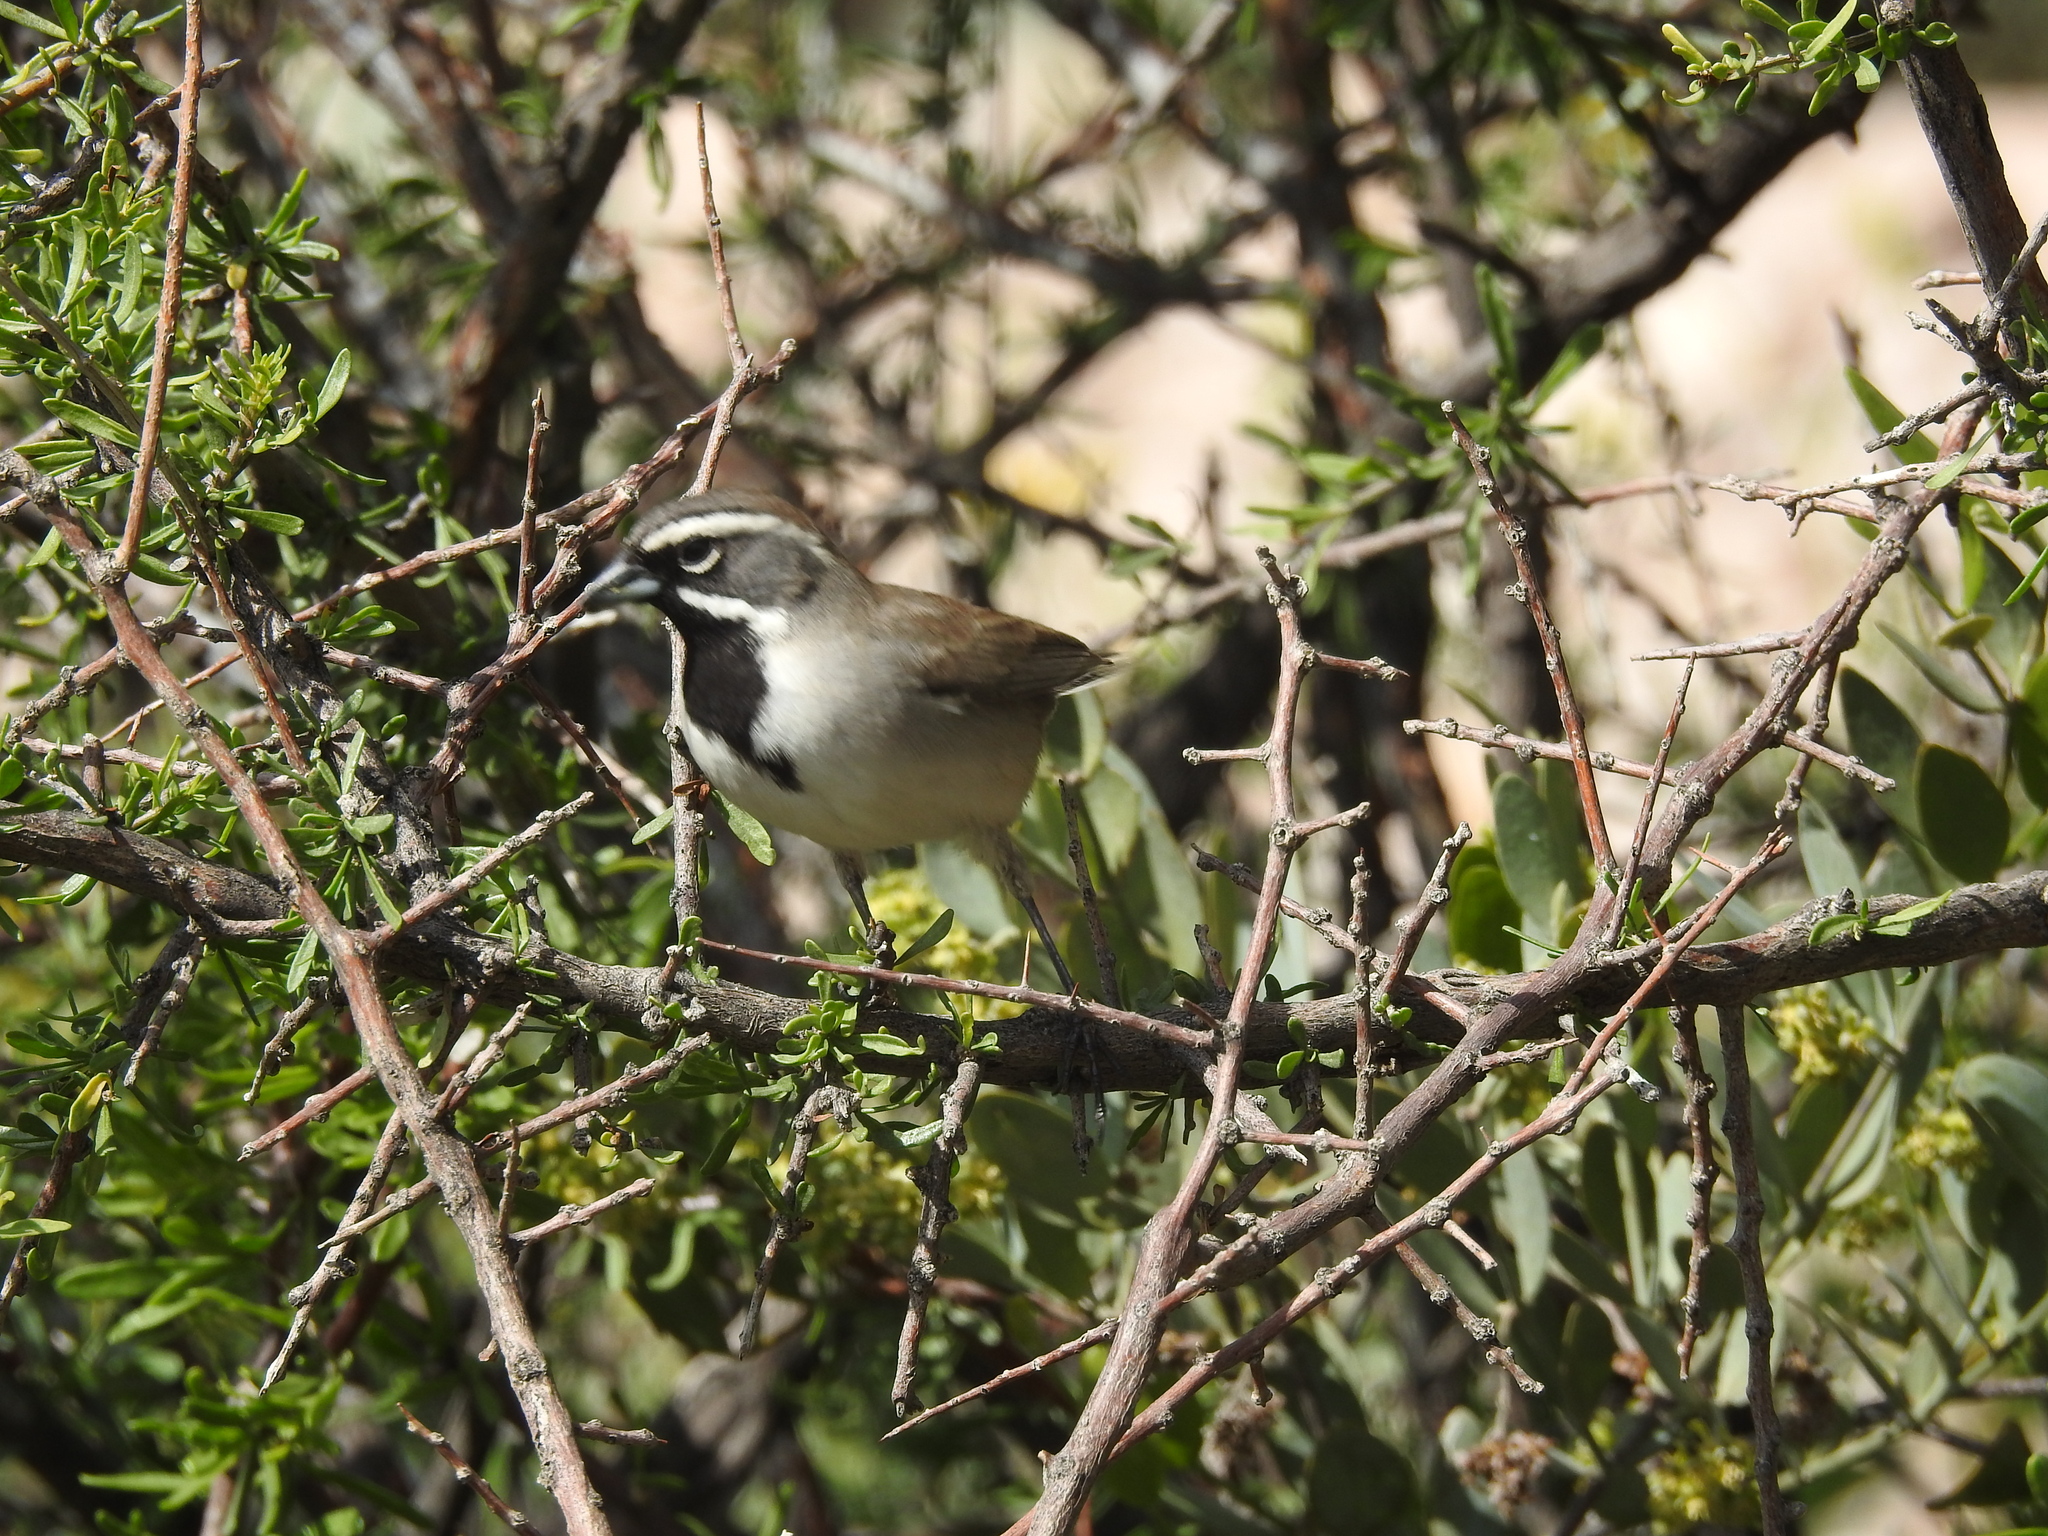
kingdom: Animalia
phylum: Chordata
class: Aves
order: Passeriformes
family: Passerellidae
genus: Amphispiza
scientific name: Amphispiza bilineata
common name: Black-throated sparrow
